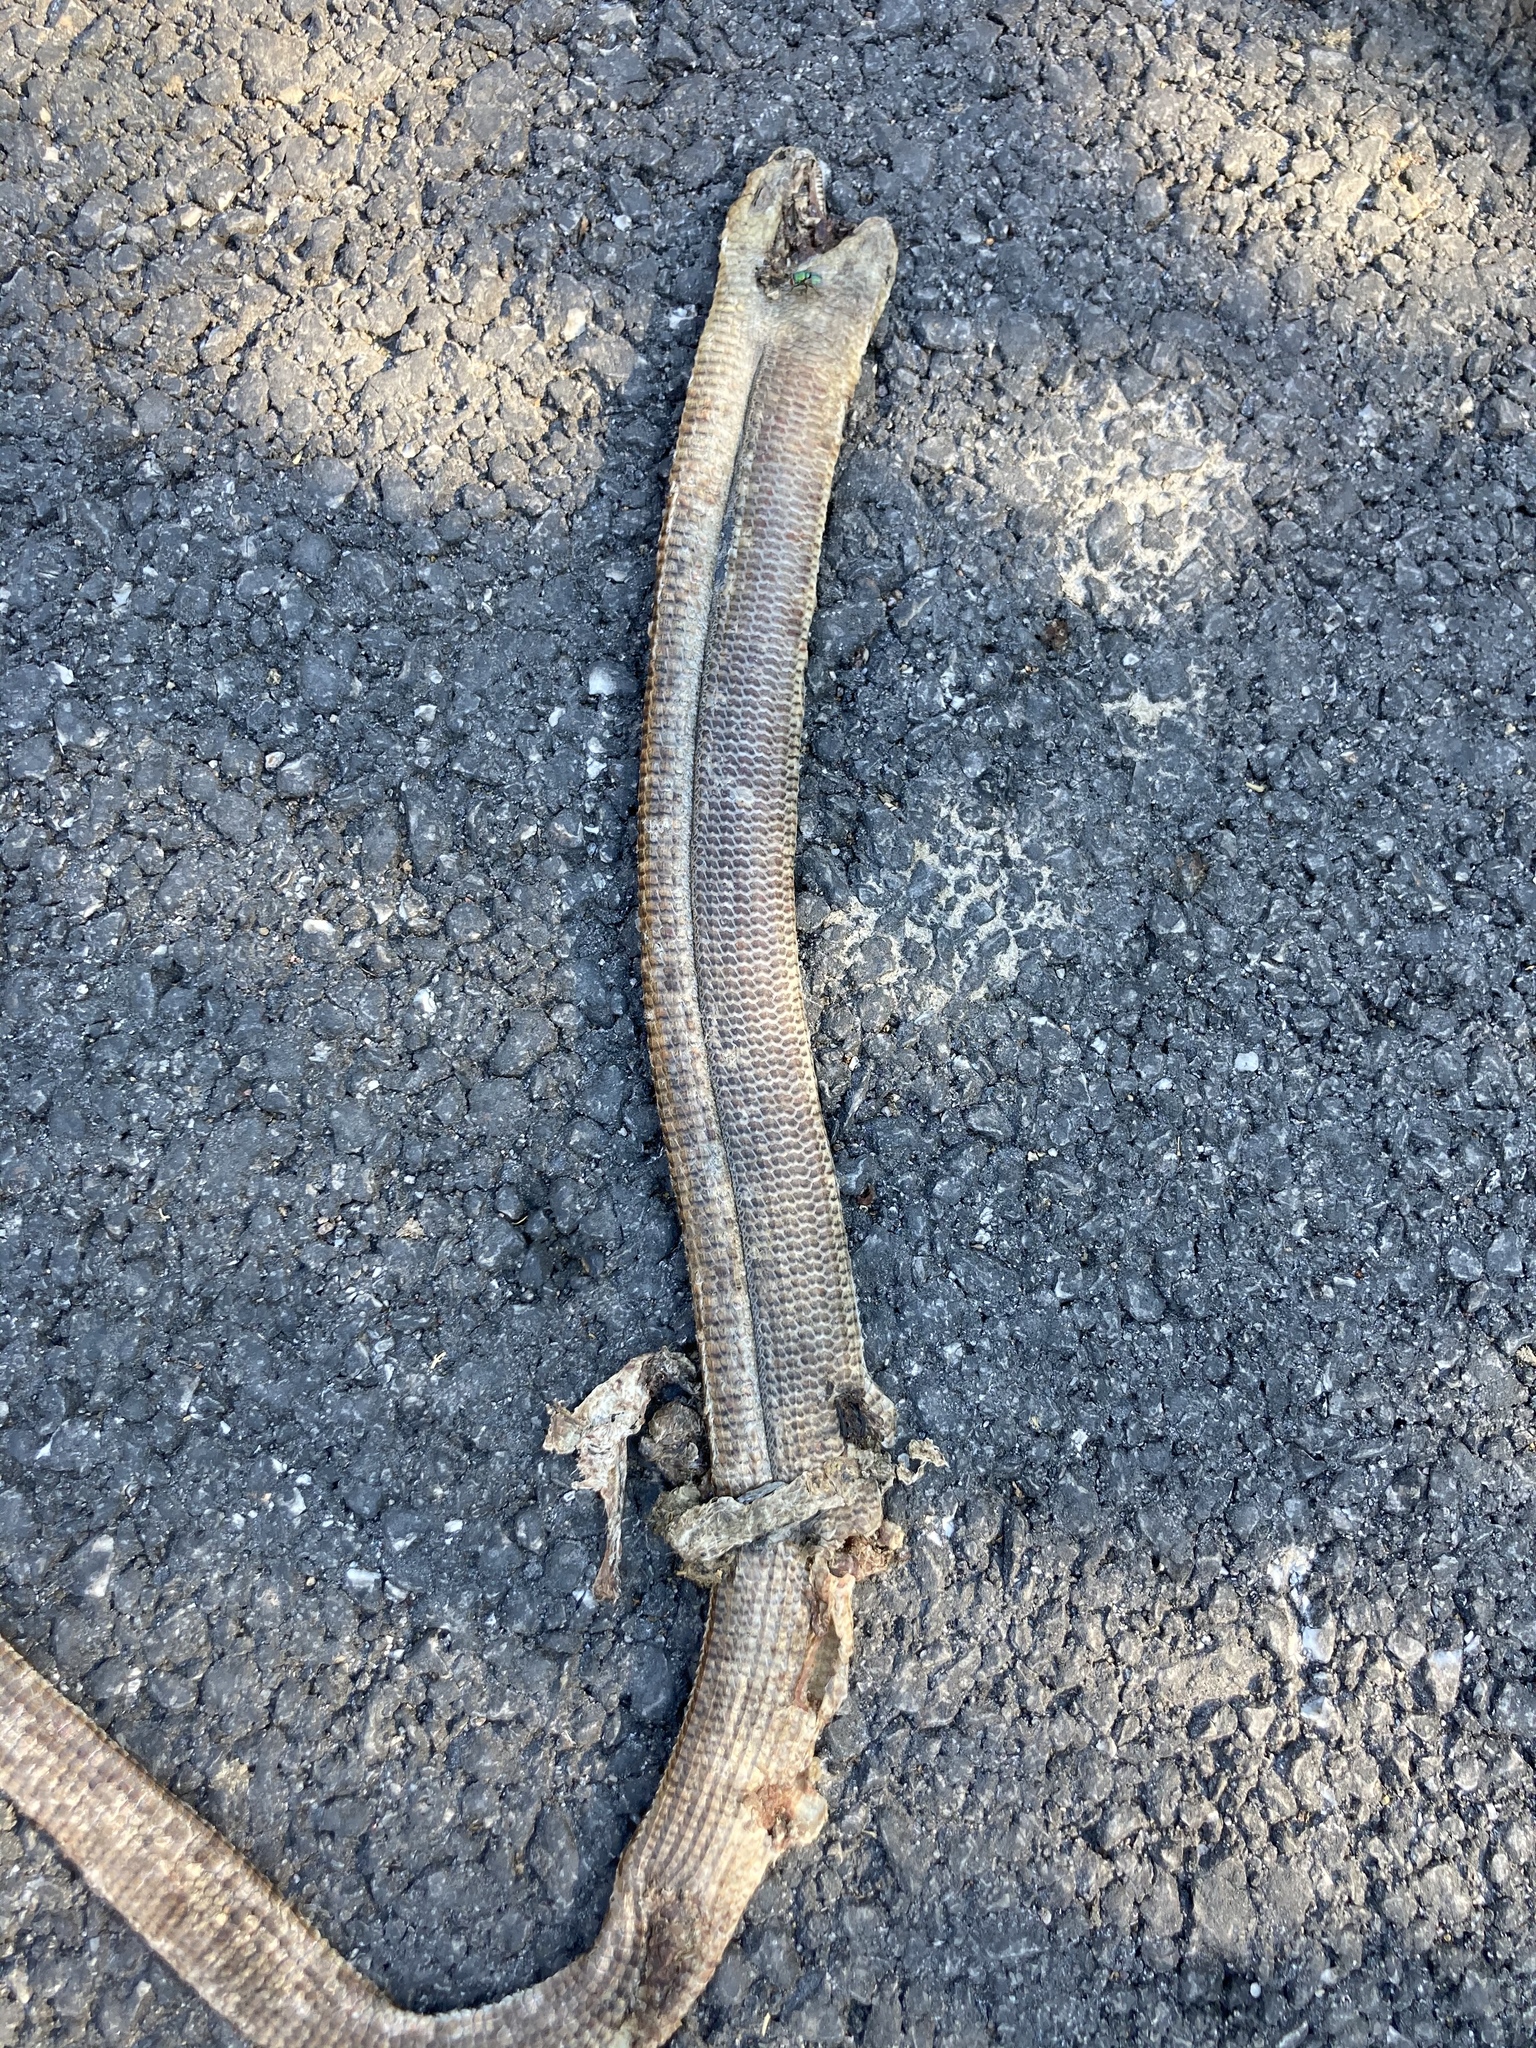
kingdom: Animalia
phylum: Chordata
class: Squamata
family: Anguidae
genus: Pseudopus
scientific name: Pseudopus apodus
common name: European glass lizard
